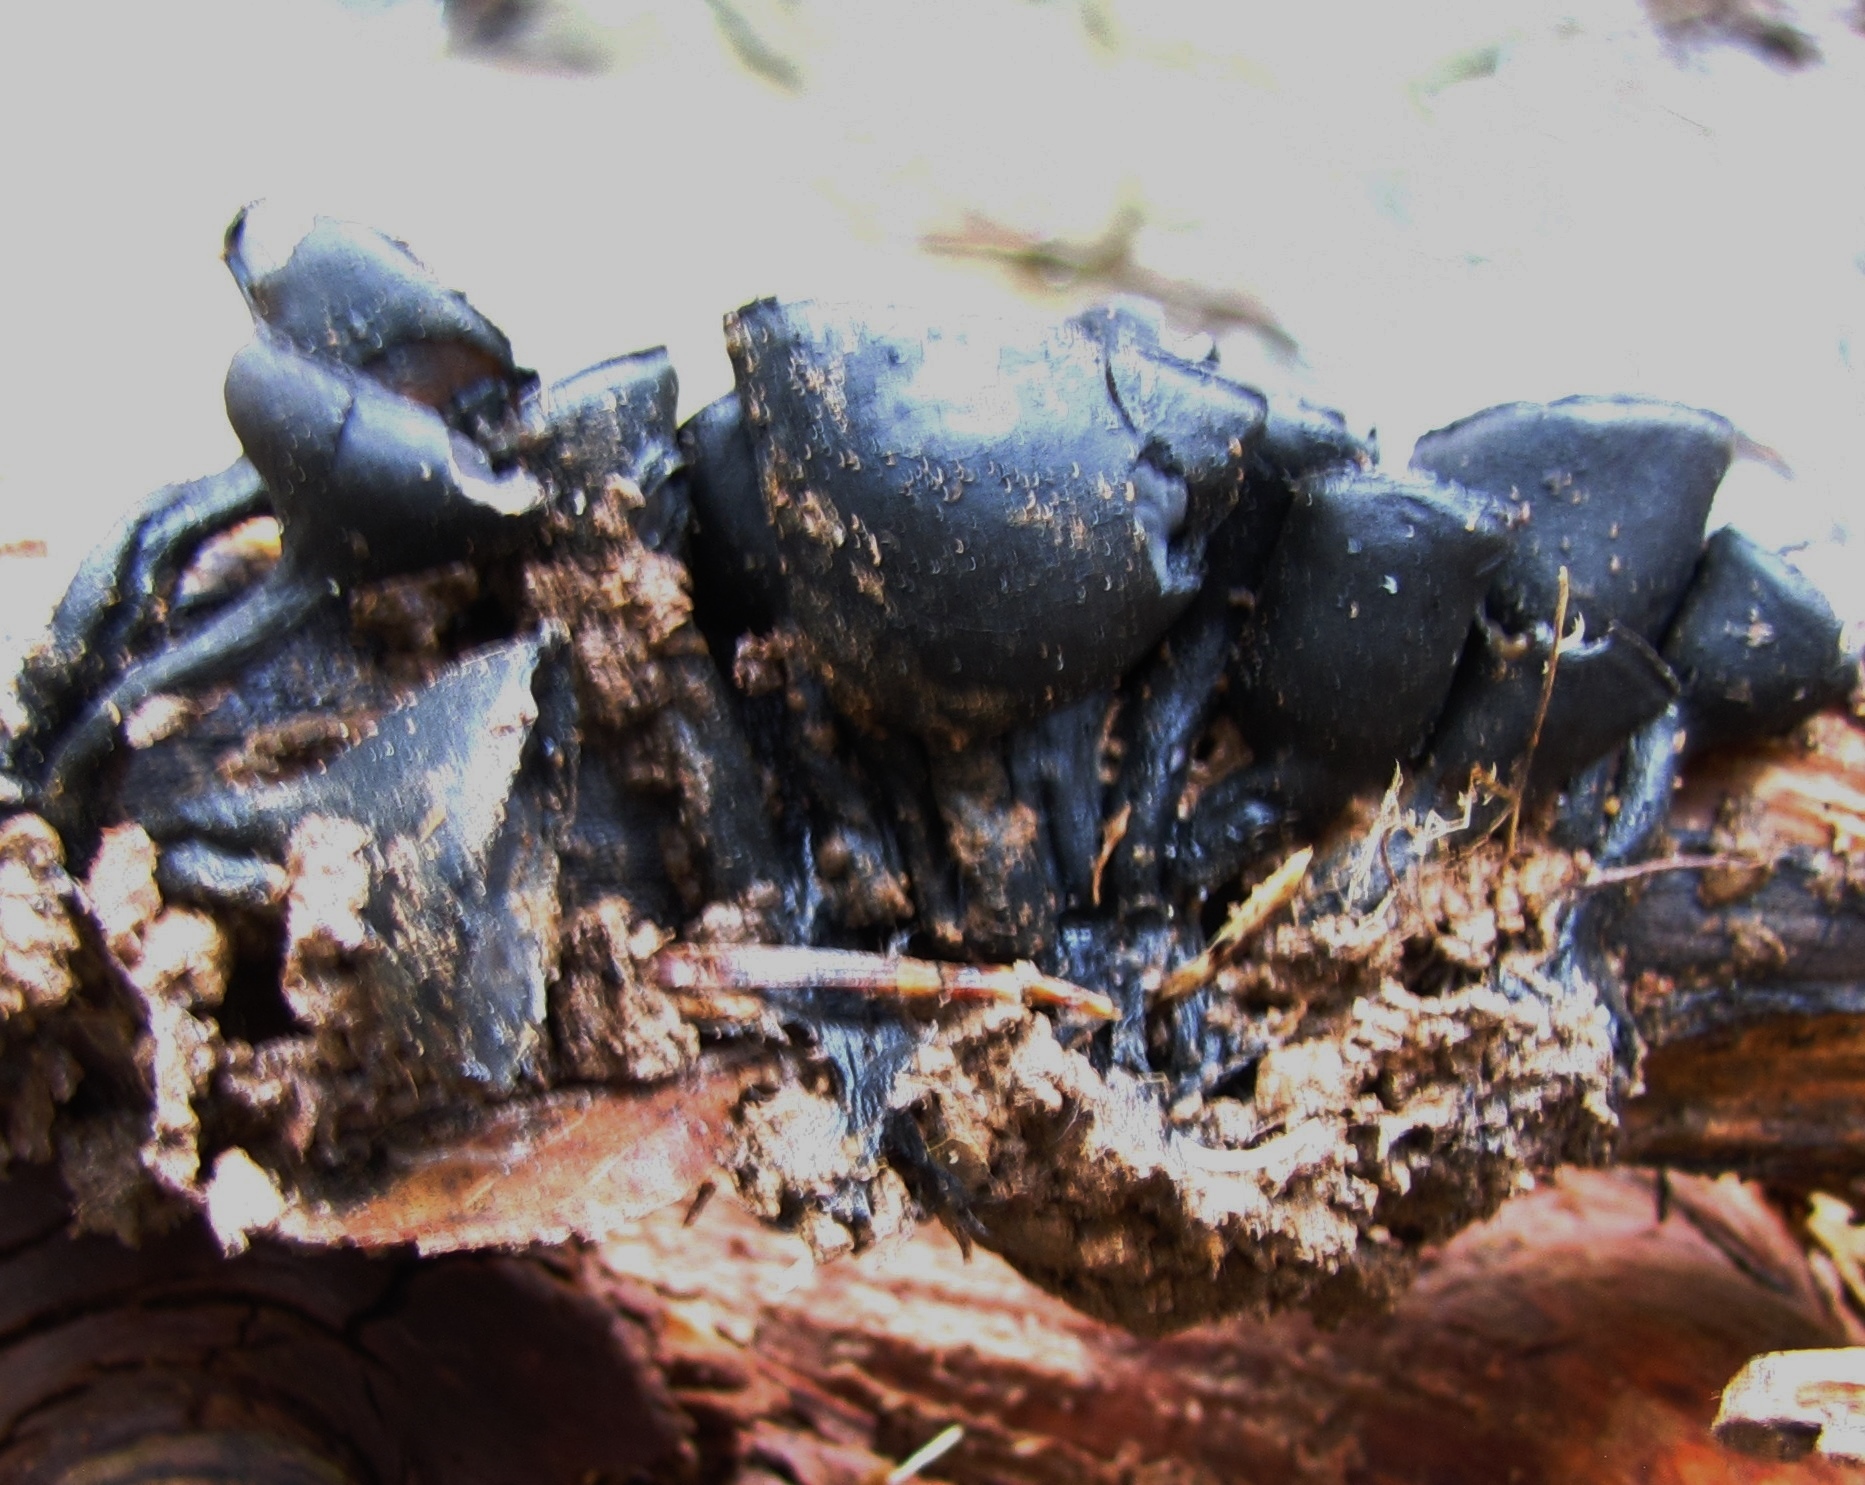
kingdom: Fungi
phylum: Ascomycota
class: Pezizomycetes
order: Pezizales
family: Sarcosomataceae
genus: Urnula
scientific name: Urnula craterium
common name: Devil's urn
